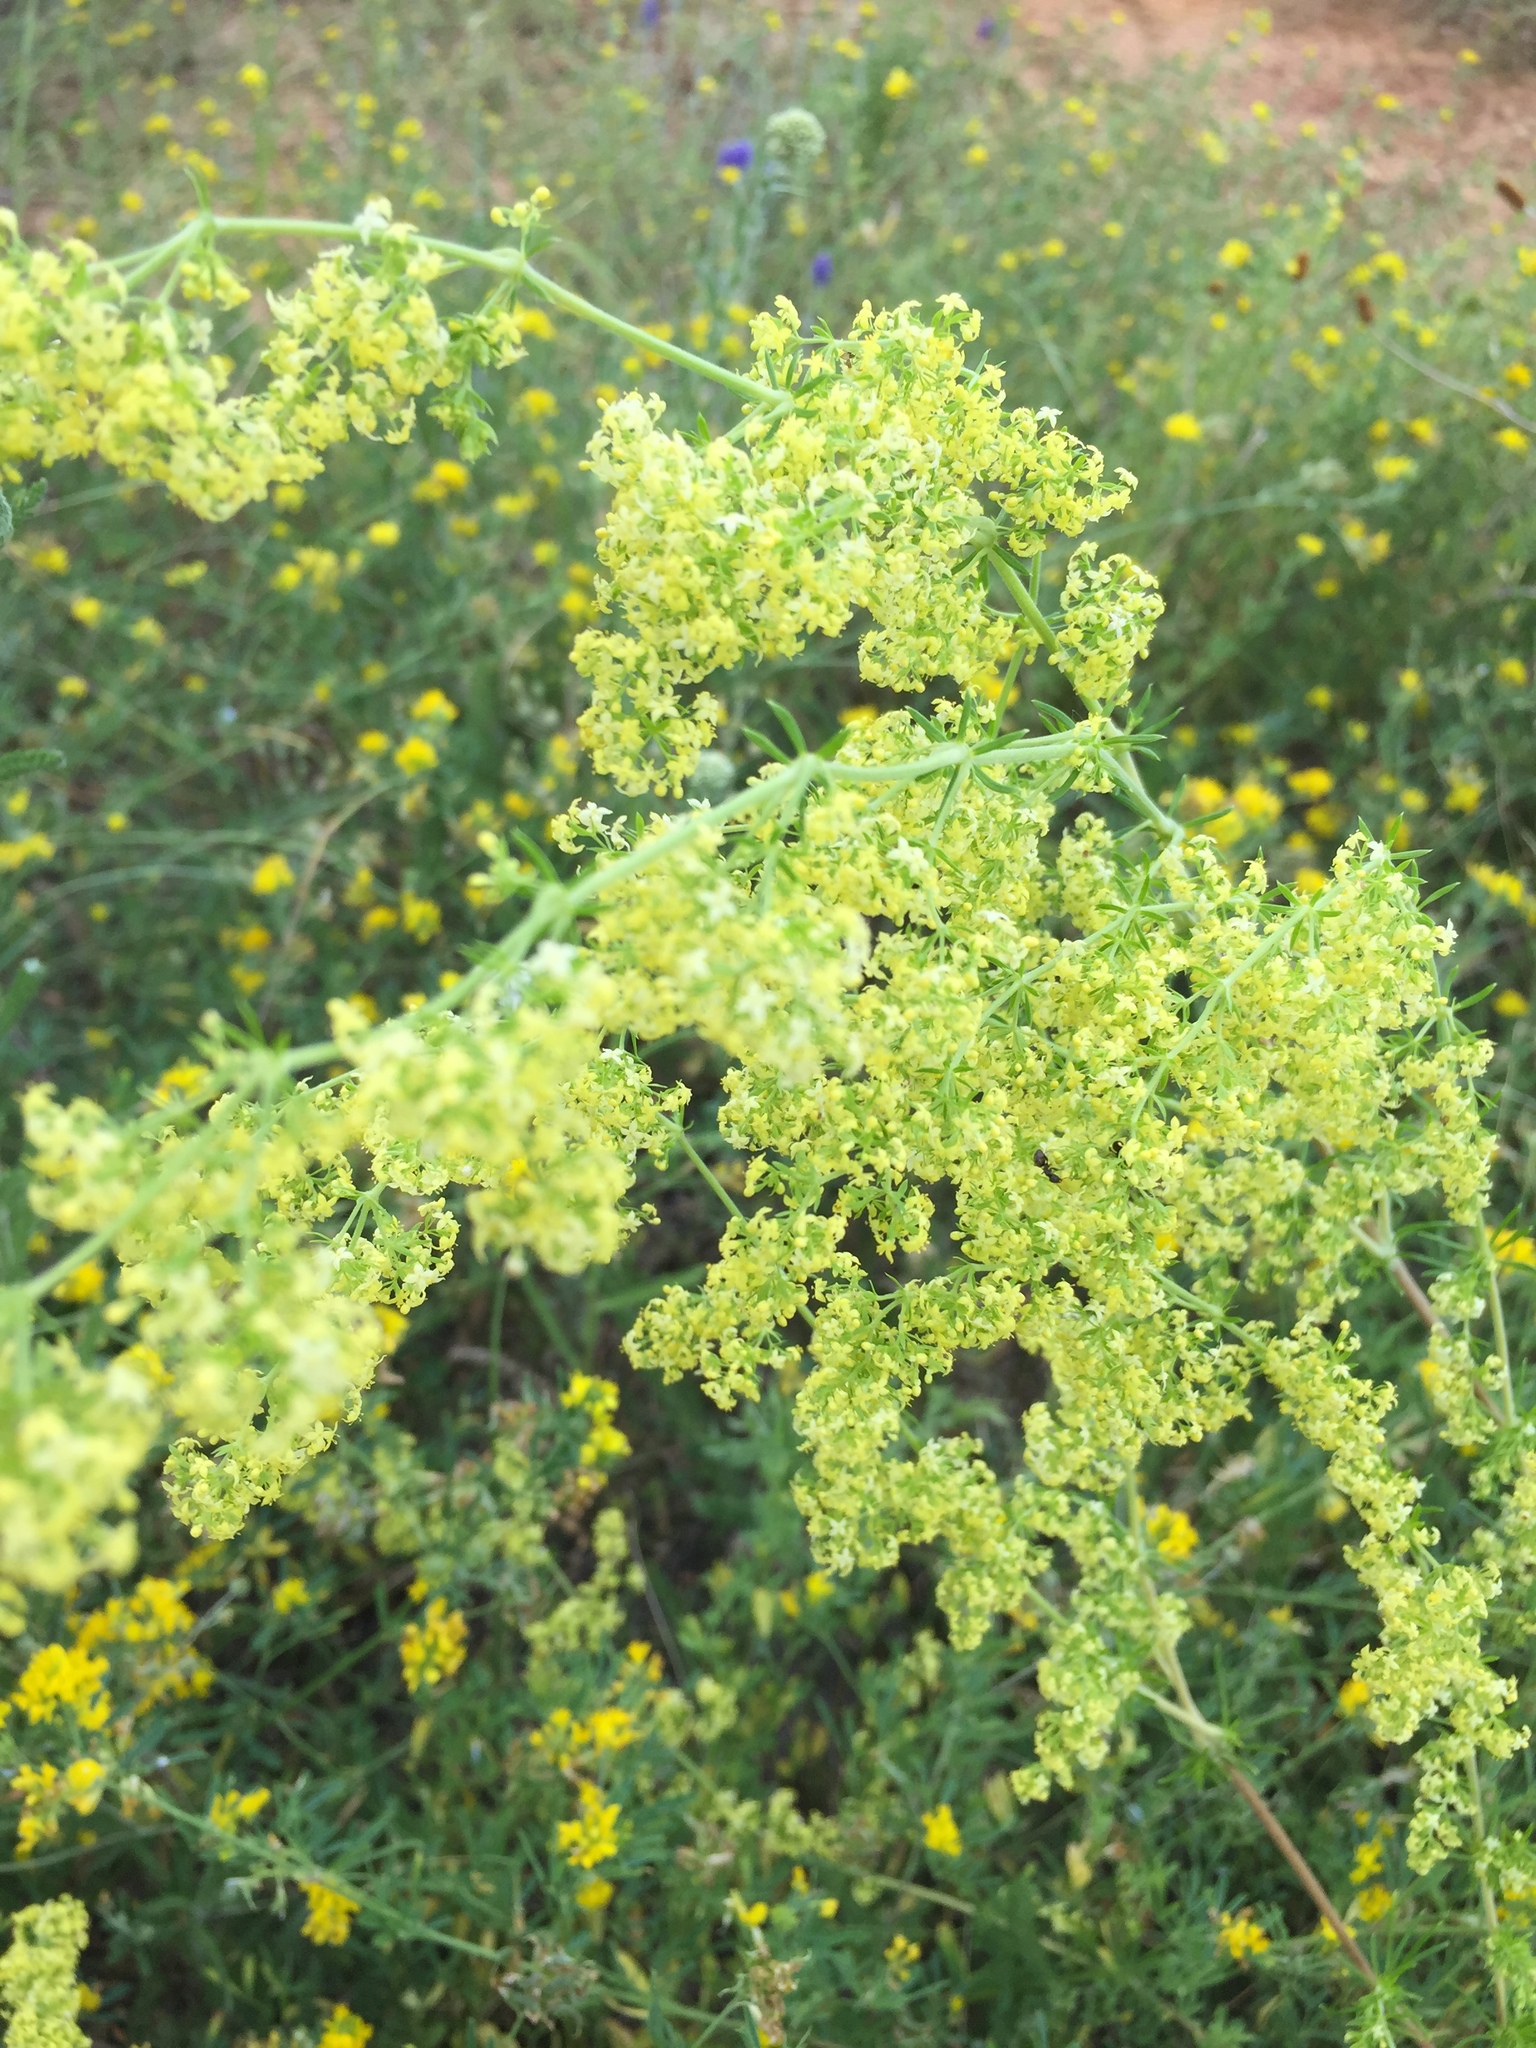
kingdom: Plantae
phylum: Tracheophyta
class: Magnoliopsida
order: Gentianales
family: Rubiaceae
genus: Galium
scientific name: Galium verum
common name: Lady's bedstraw
